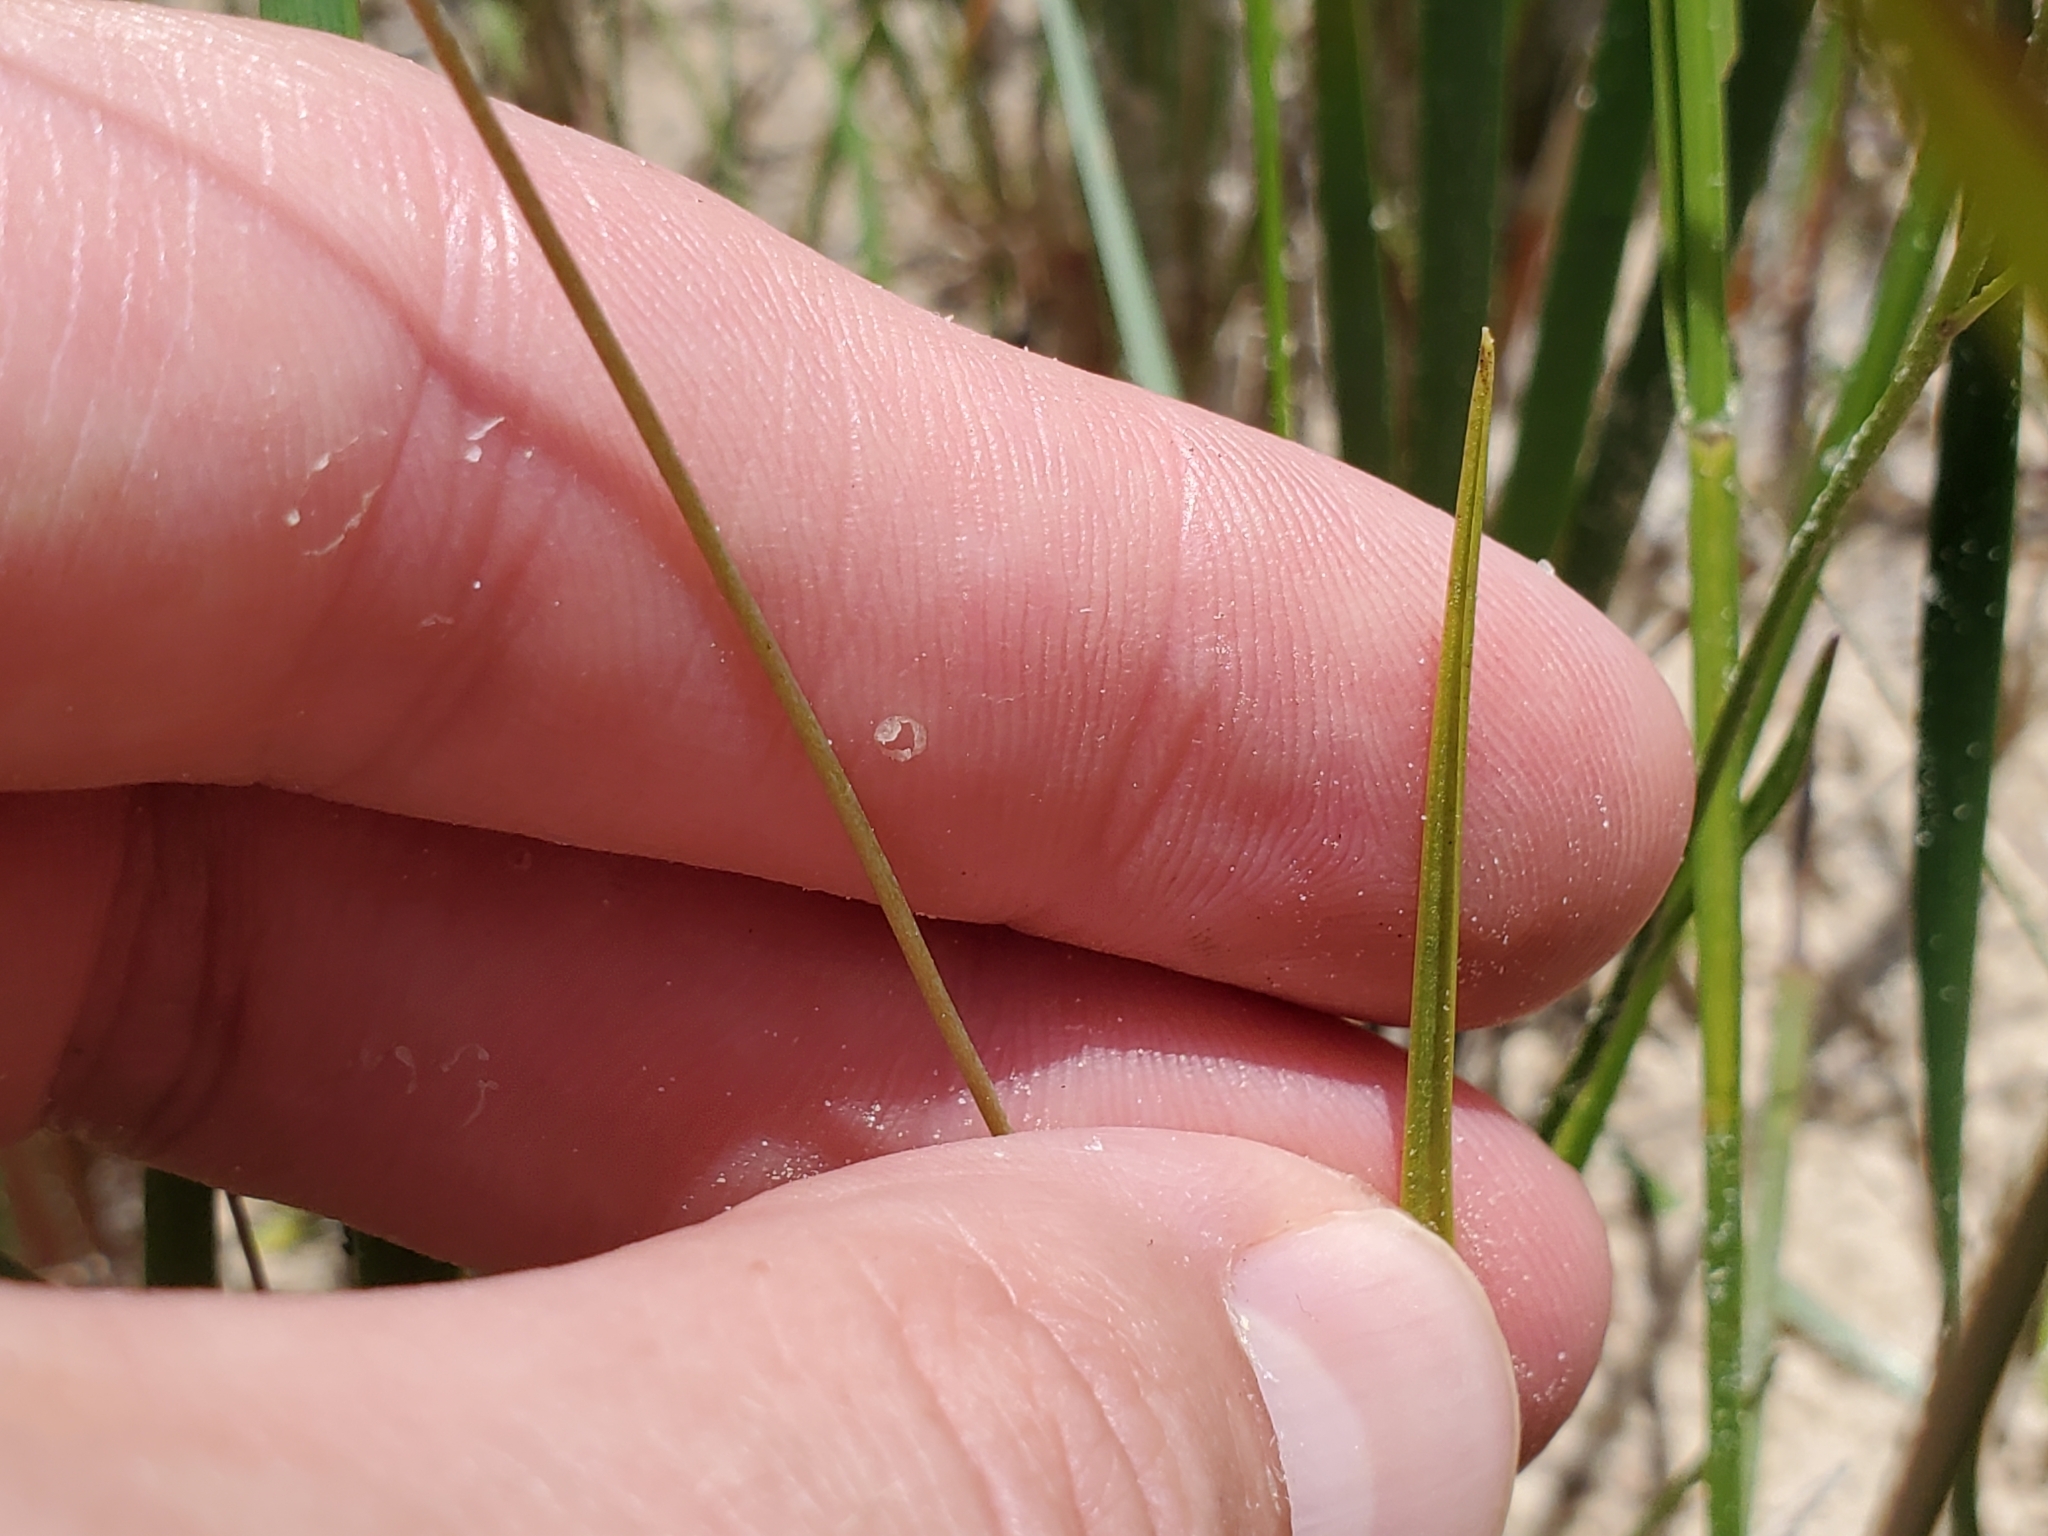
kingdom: Plantae
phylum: Tracheophyta
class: Liliopsida
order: Asparagales
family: Orchidaceae
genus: Calopogon
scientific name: Calopogon pallidus
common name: Pale grasspink
